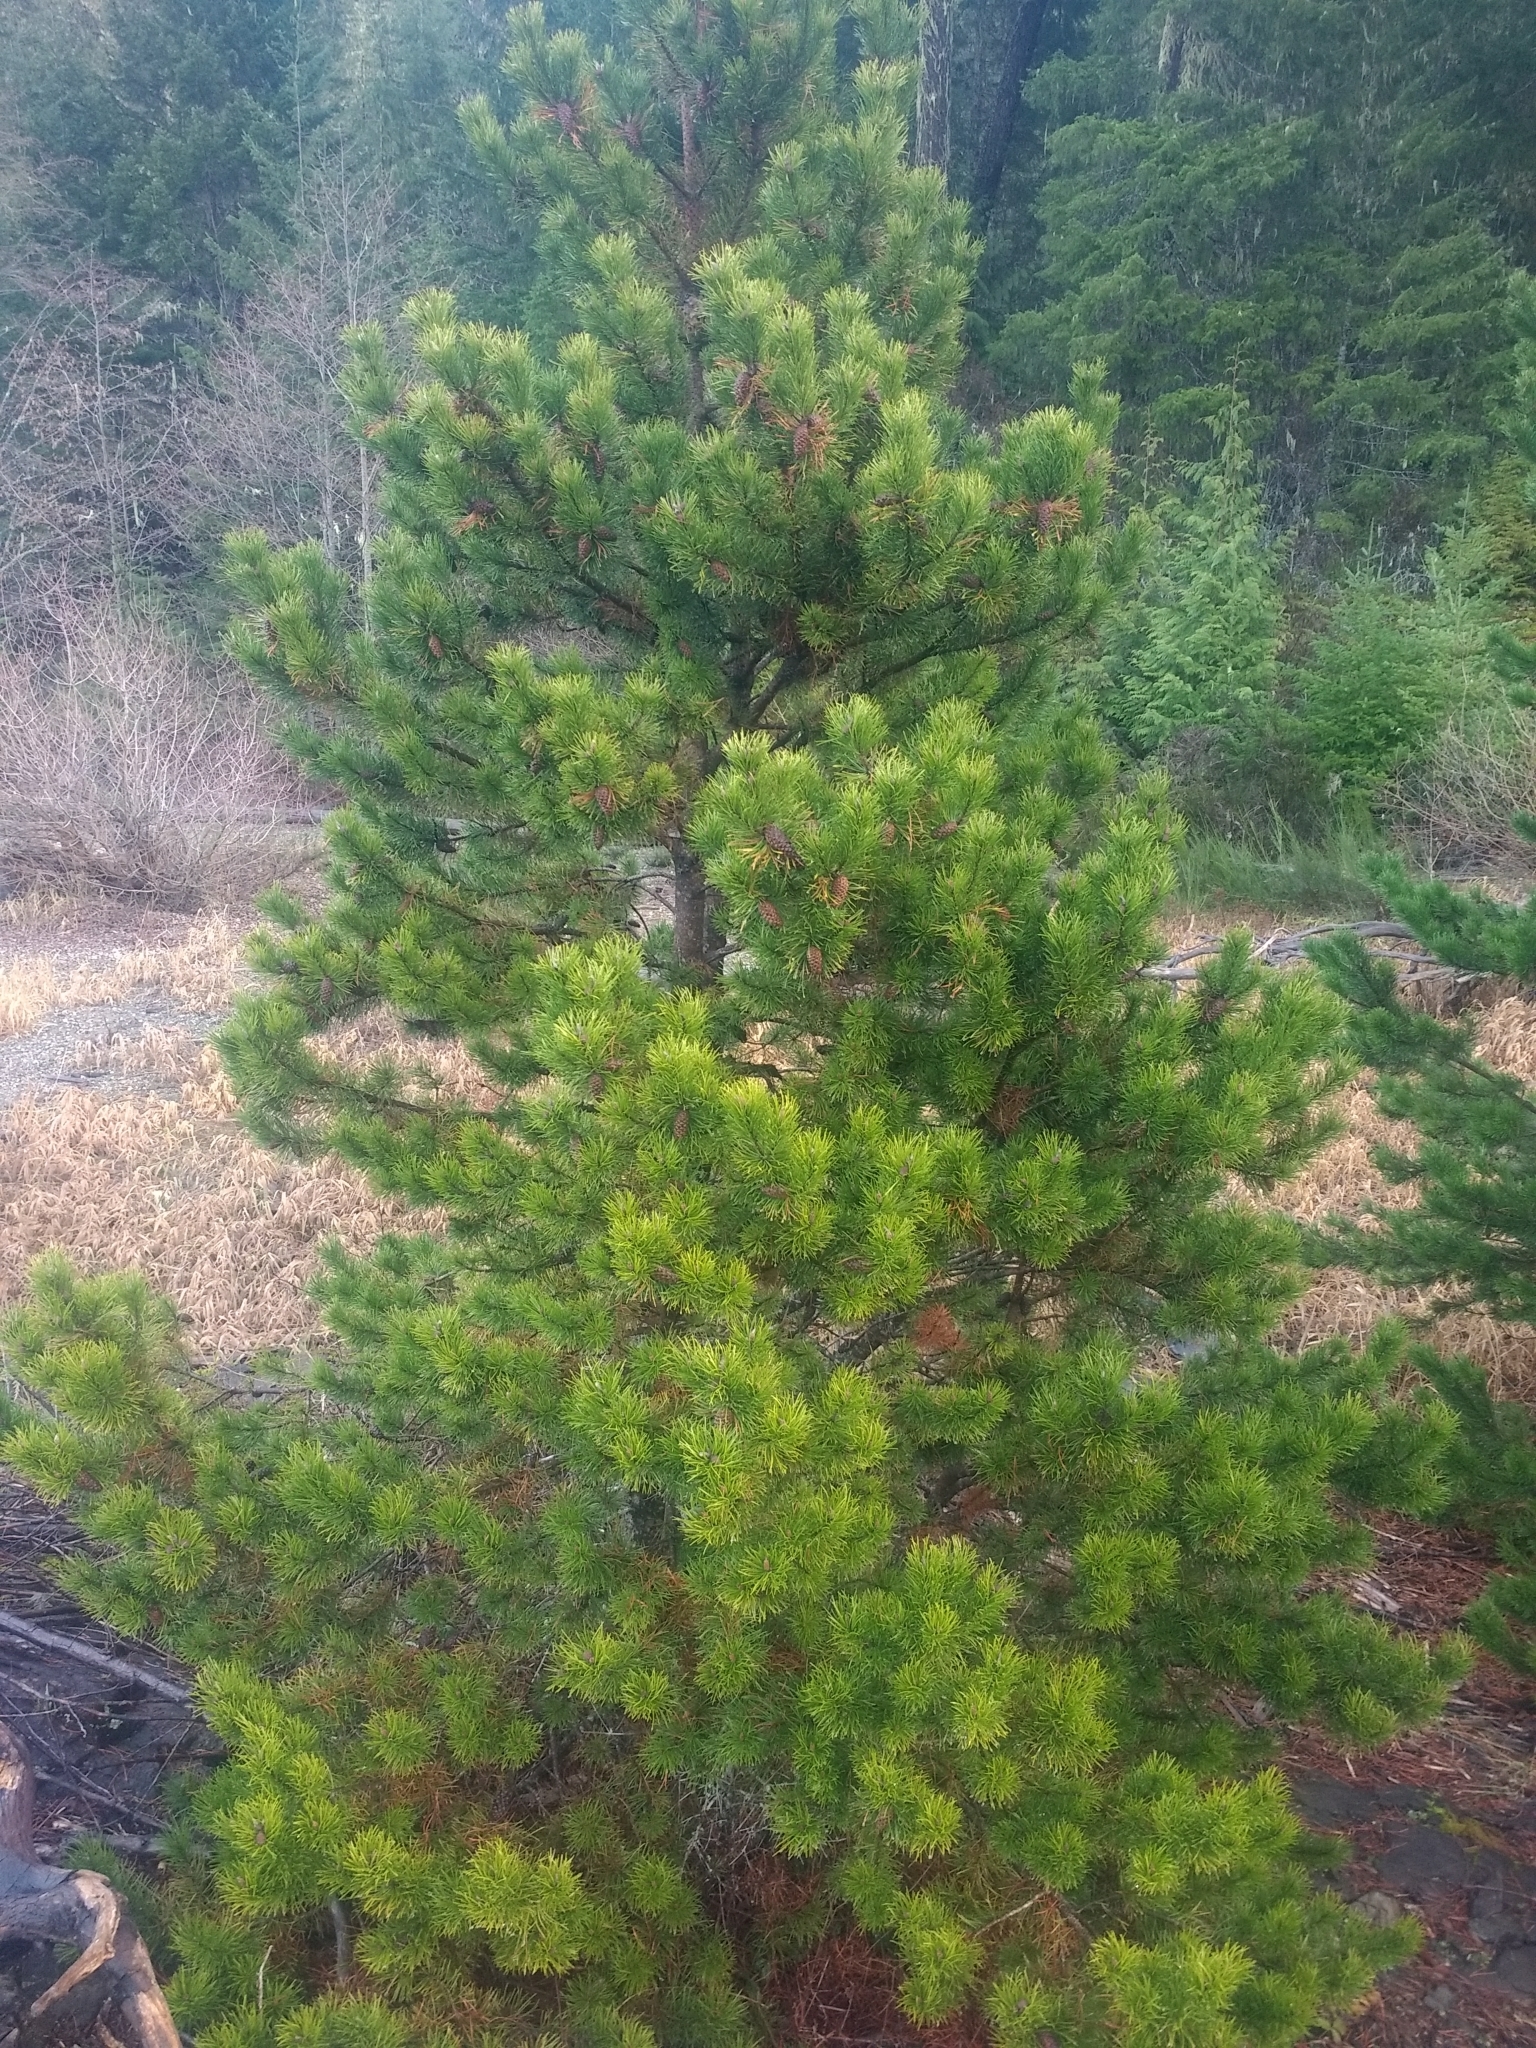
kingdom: Plantae
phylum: Tracheophyta
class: Pinopsida
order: Pinales
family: Pinaceae
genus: Pinus
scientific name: Pinus contorta
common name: Lodgepole pine
